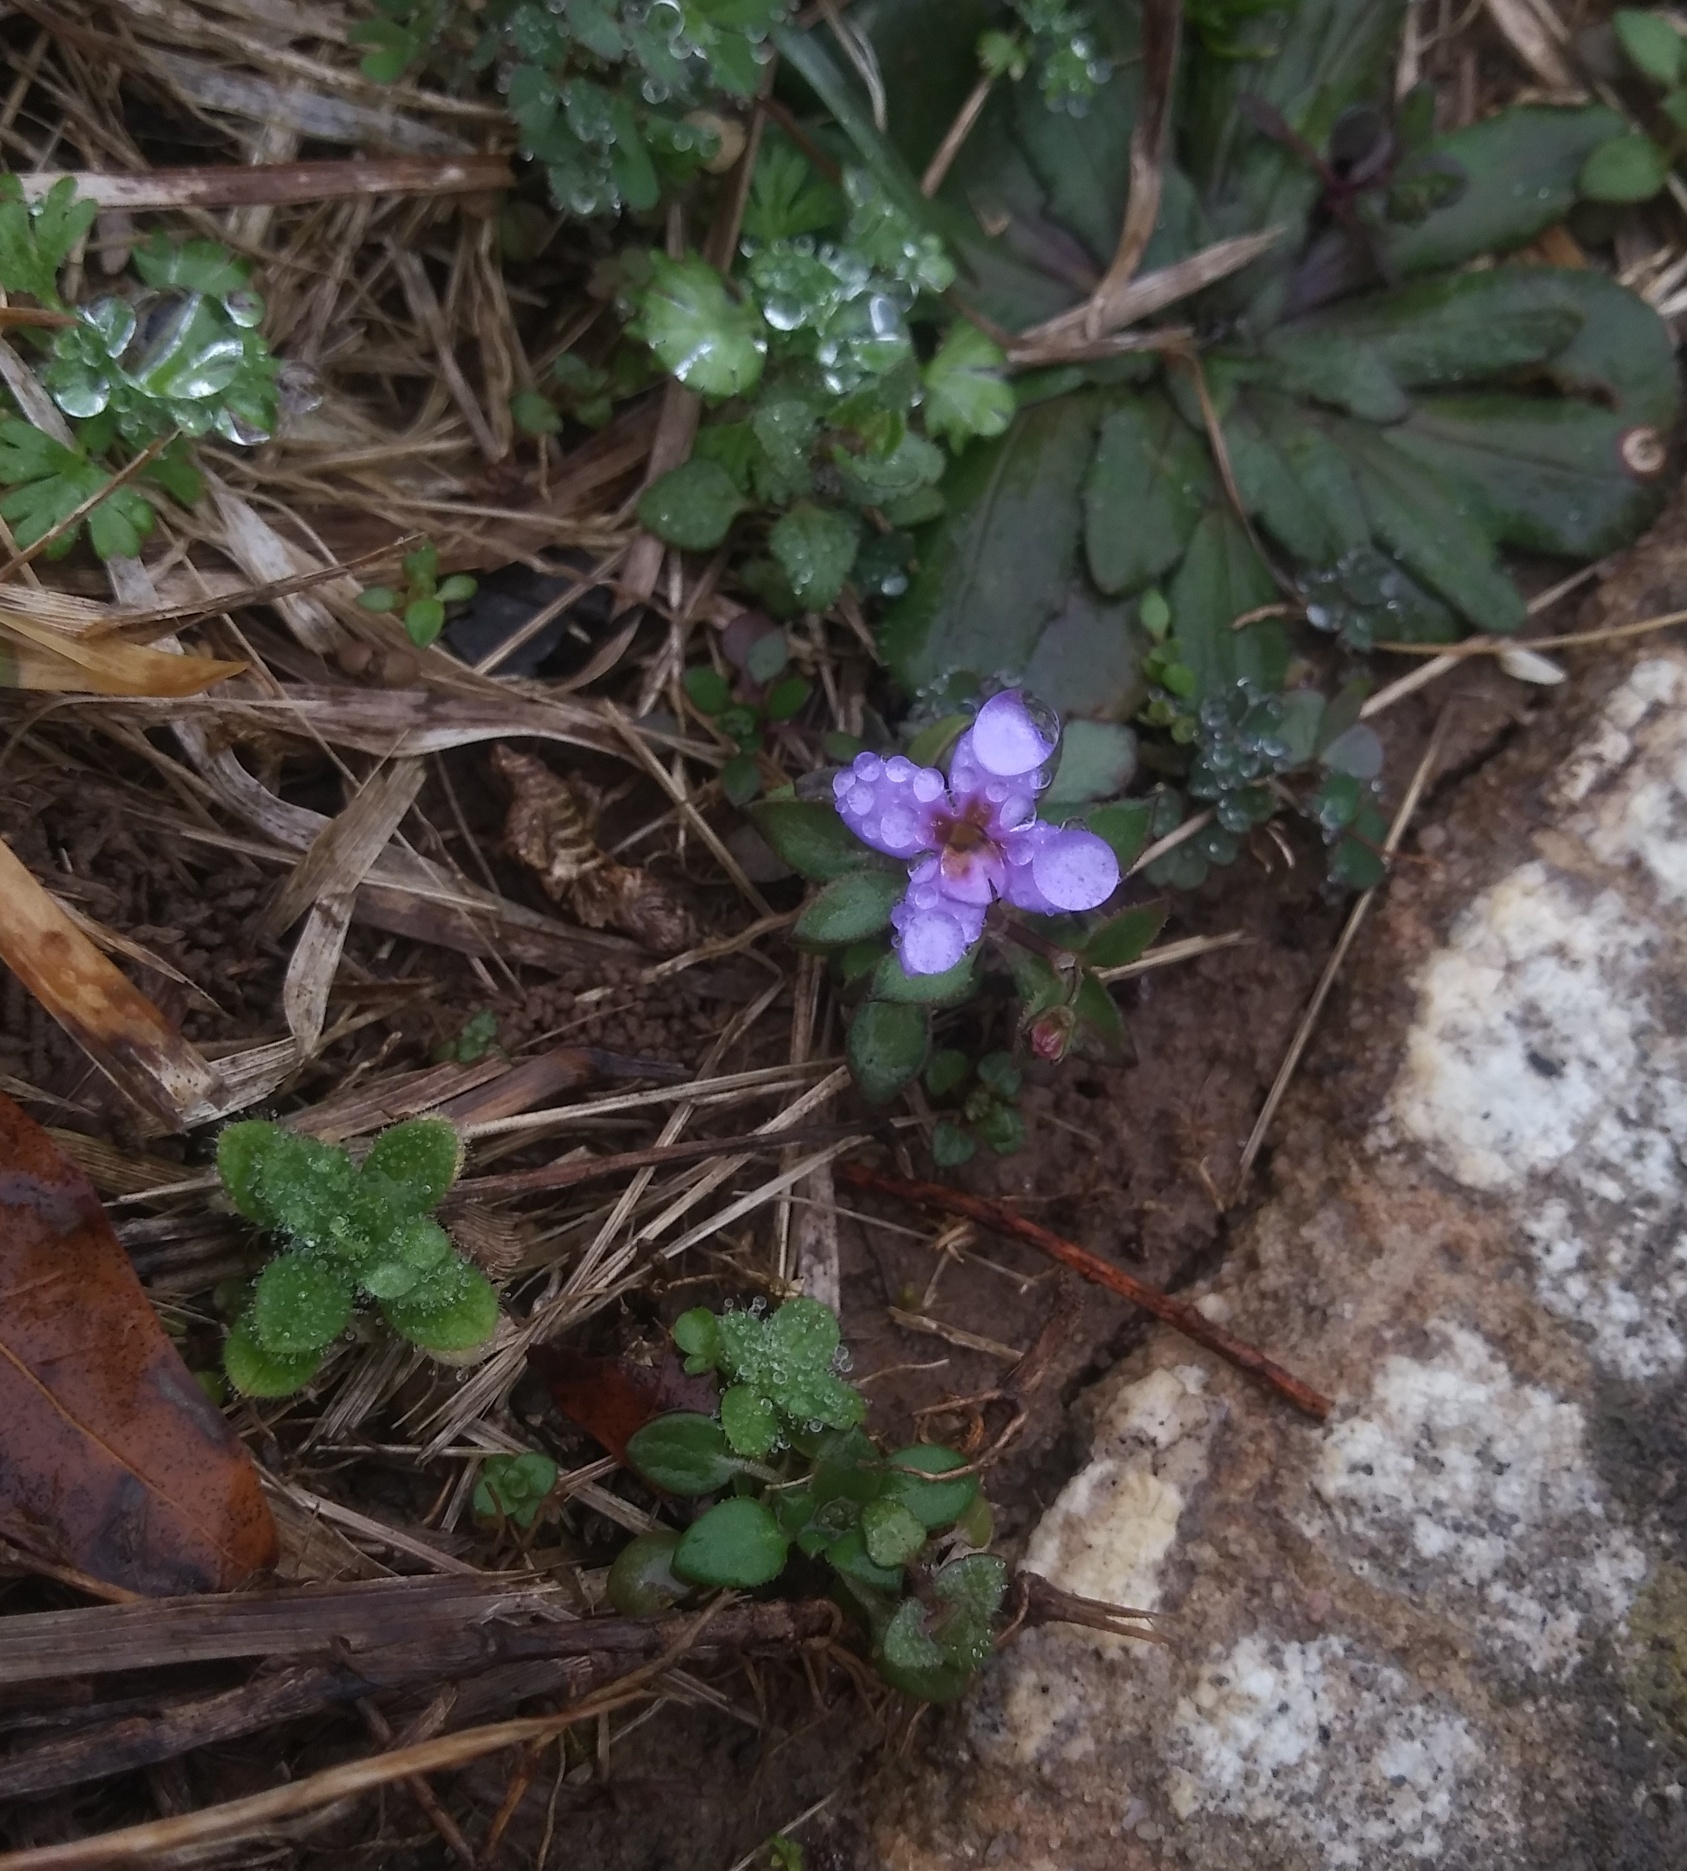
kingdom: Plantae
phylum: Tracheophyta
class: Magnoliopsida
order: Gentianales
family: Rubiaceae
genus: Houstonia
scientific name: Houstonia pusilla
